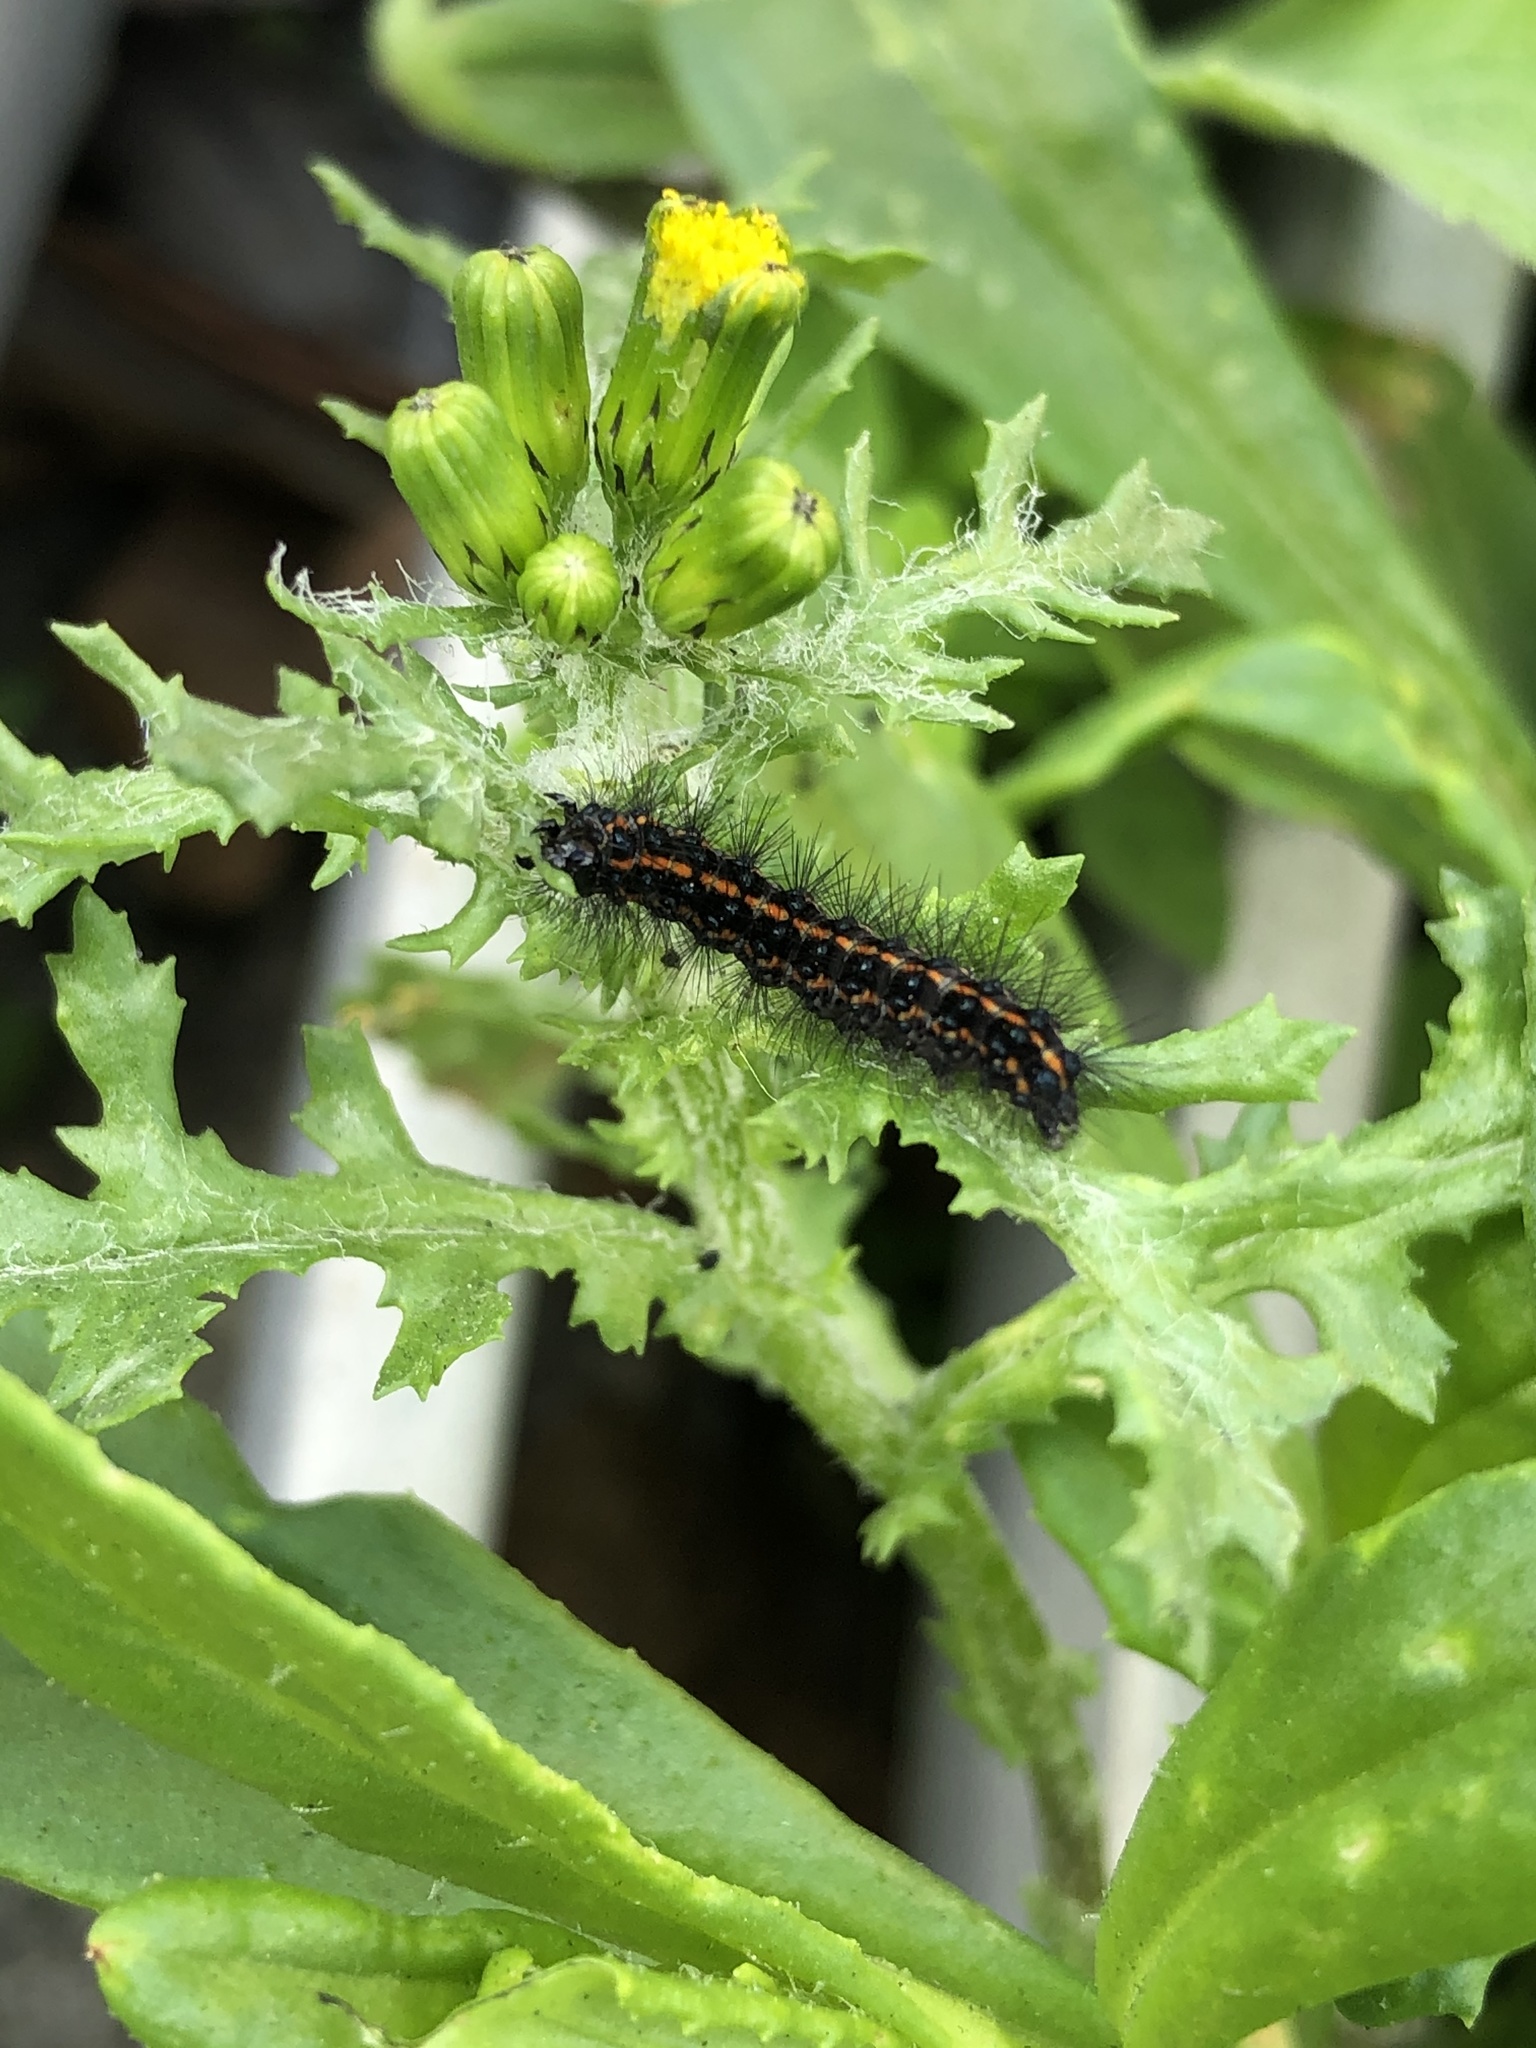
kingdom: Animalia
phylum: Arthropoda
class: Insecta
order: Lepidoptera
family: Erebidae
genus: Nyctemera
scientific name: Nyctemera annulatum
